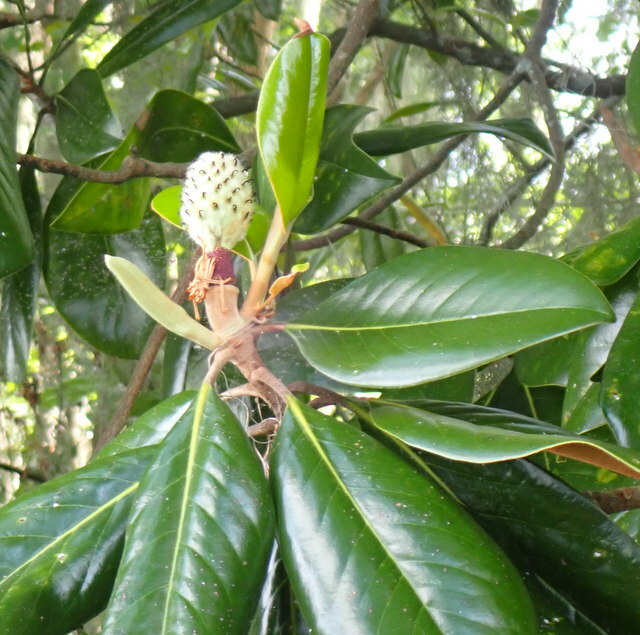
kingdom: Plantae
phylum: Tracheophyta
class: Magnoliopsida
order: Magnoliales
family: Magnoliaceae
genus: Magnolia
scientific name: Magnolia grandiflora
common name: Southern magnolia
